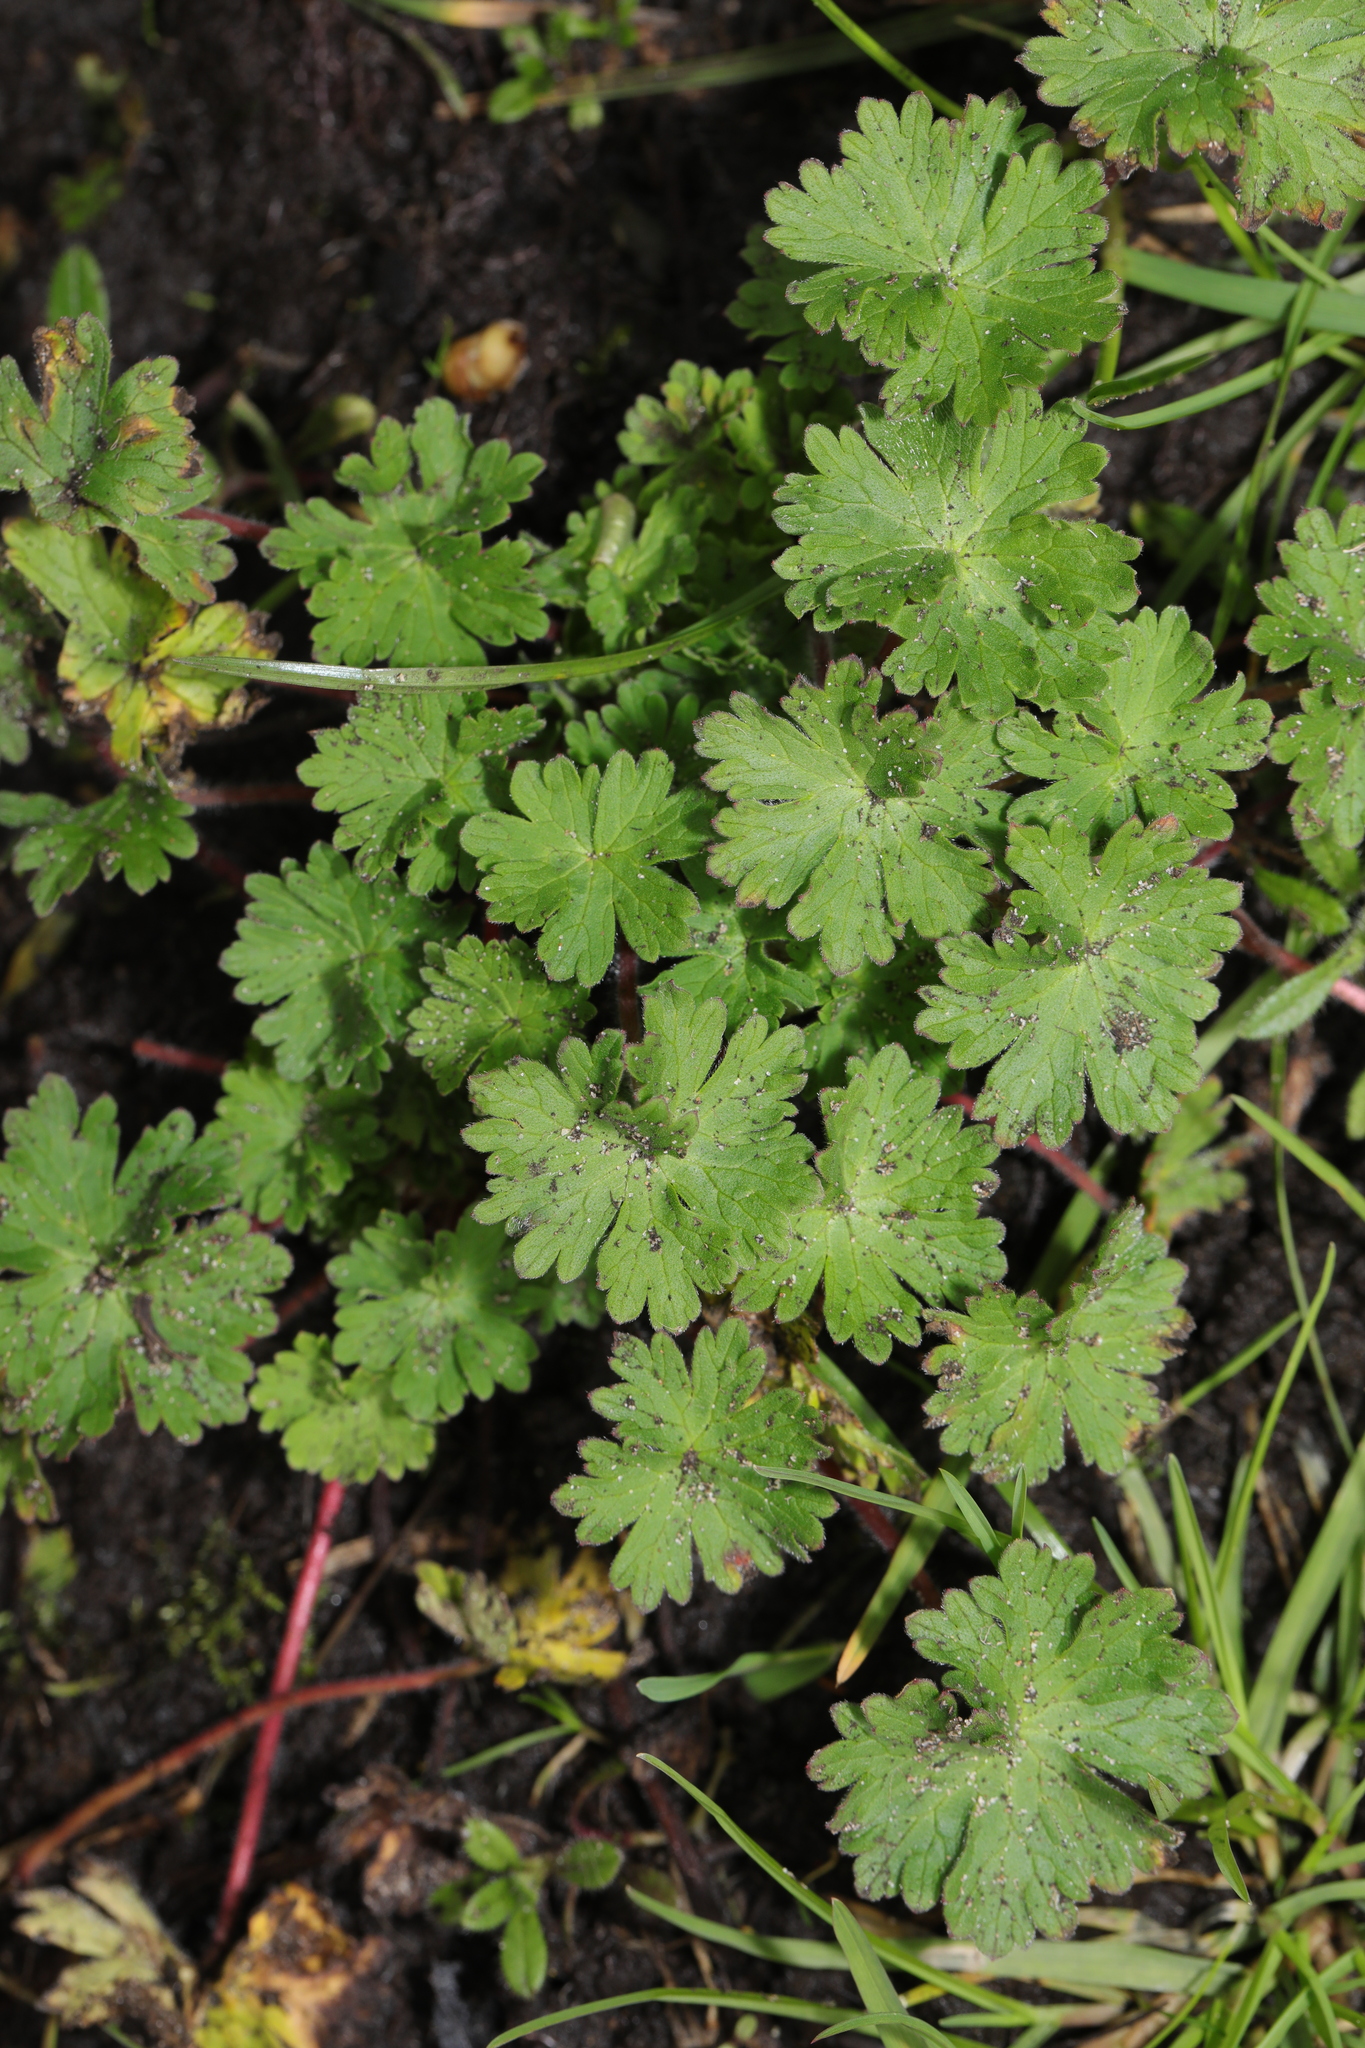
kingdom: Plantae
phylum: Tracheophyta
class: Magnoliopsida
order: Geraniales
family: Geraniaceae
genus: Geranium
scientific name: Geranium molle
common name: Dove's-foot crane's-bill
